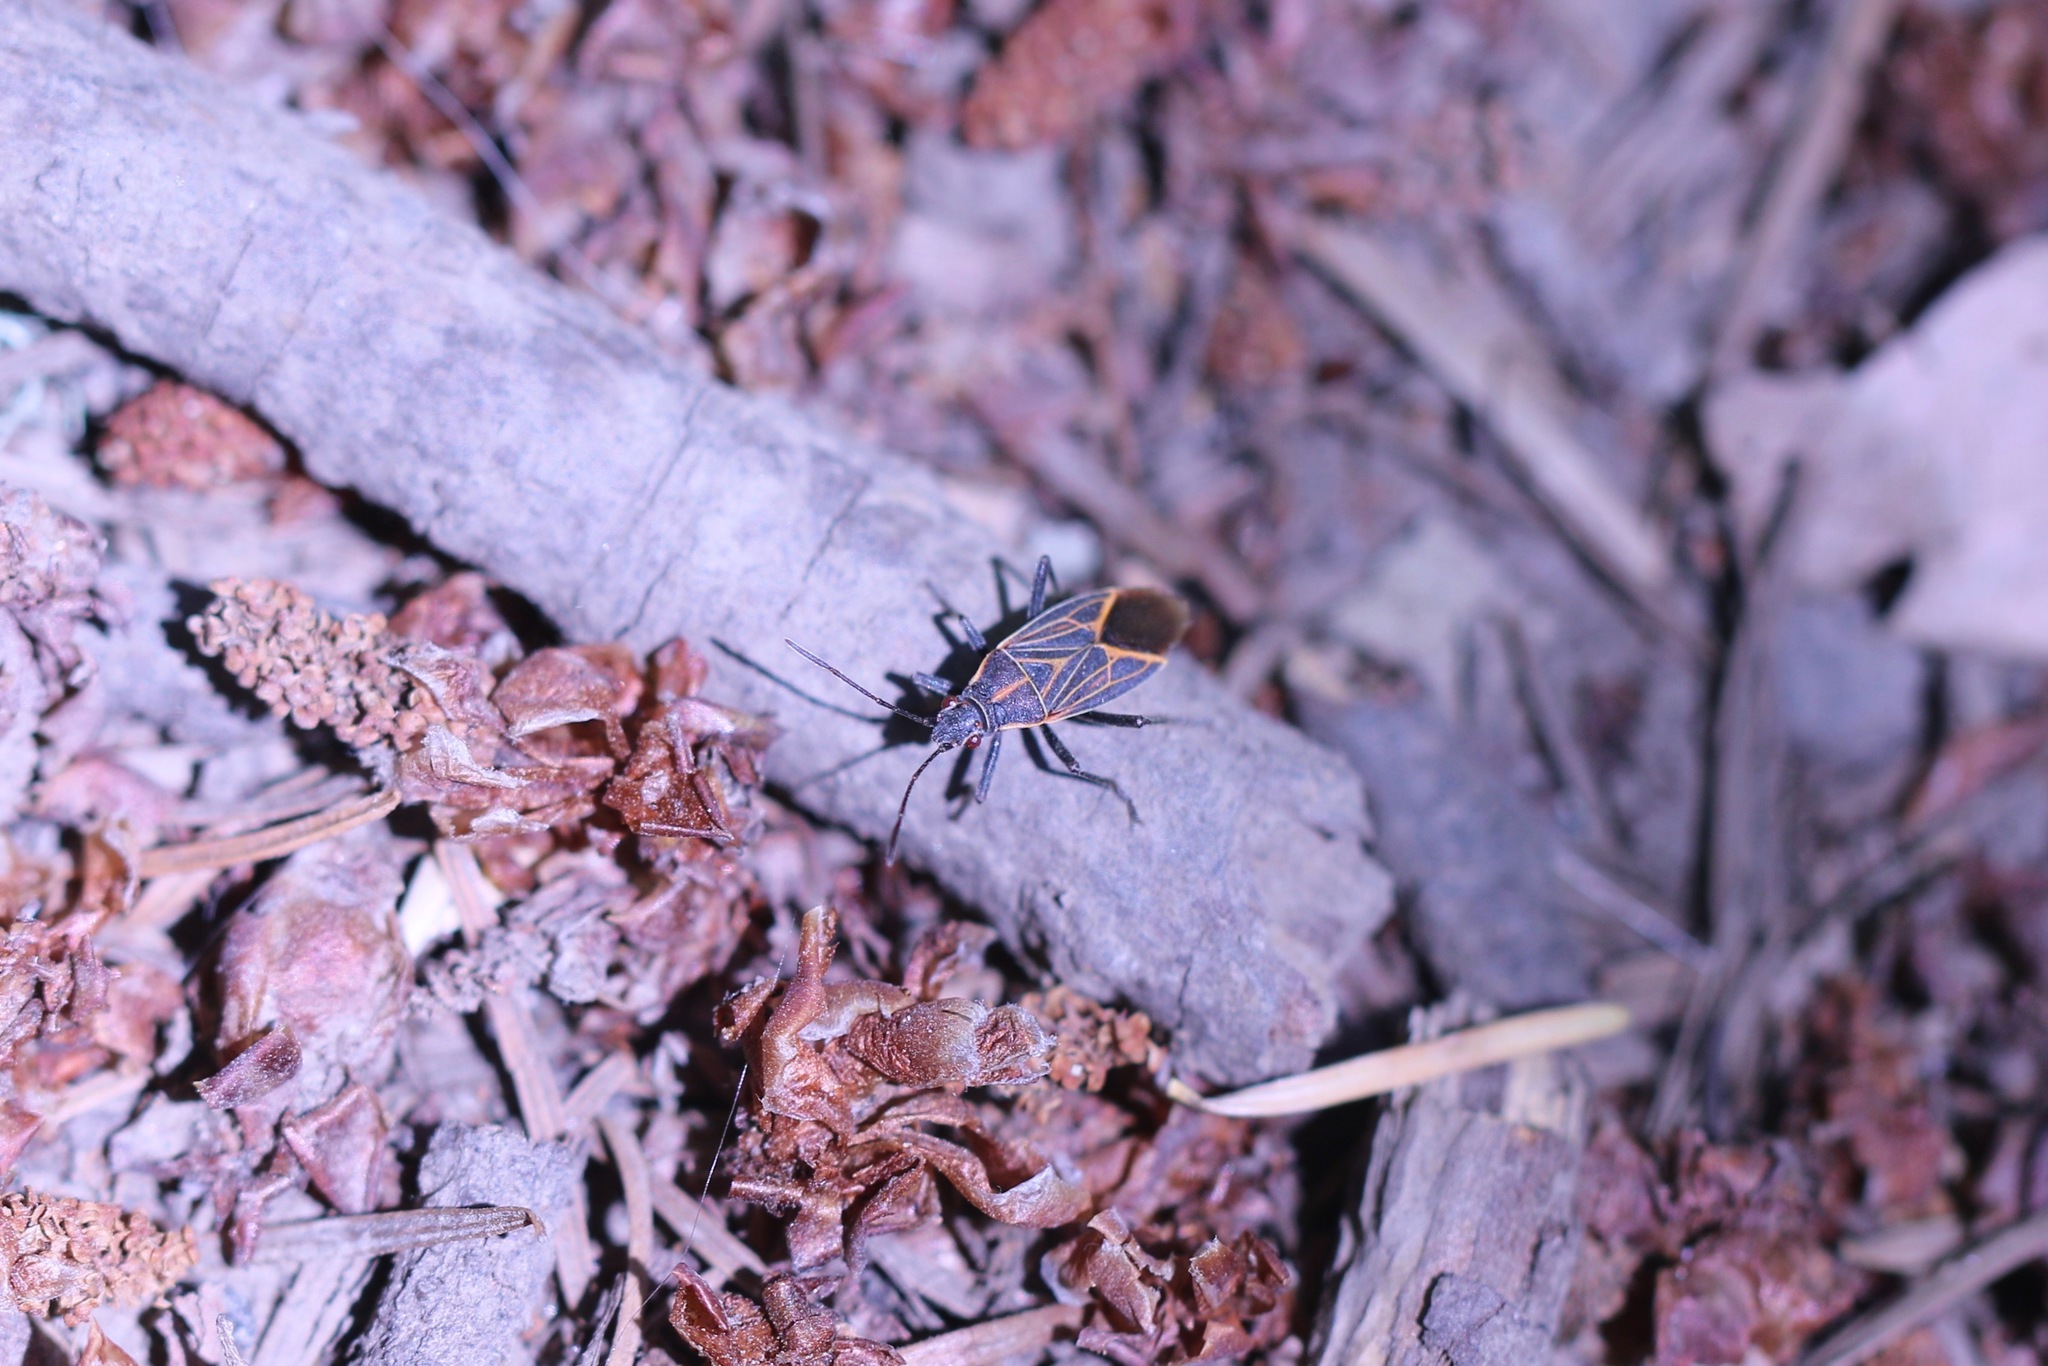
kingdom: Animalia
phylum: Arthropoda
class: Insecta
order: Hemiptera
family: Rhopalidae
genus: Boisea
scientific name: Boisea rubrolineata
